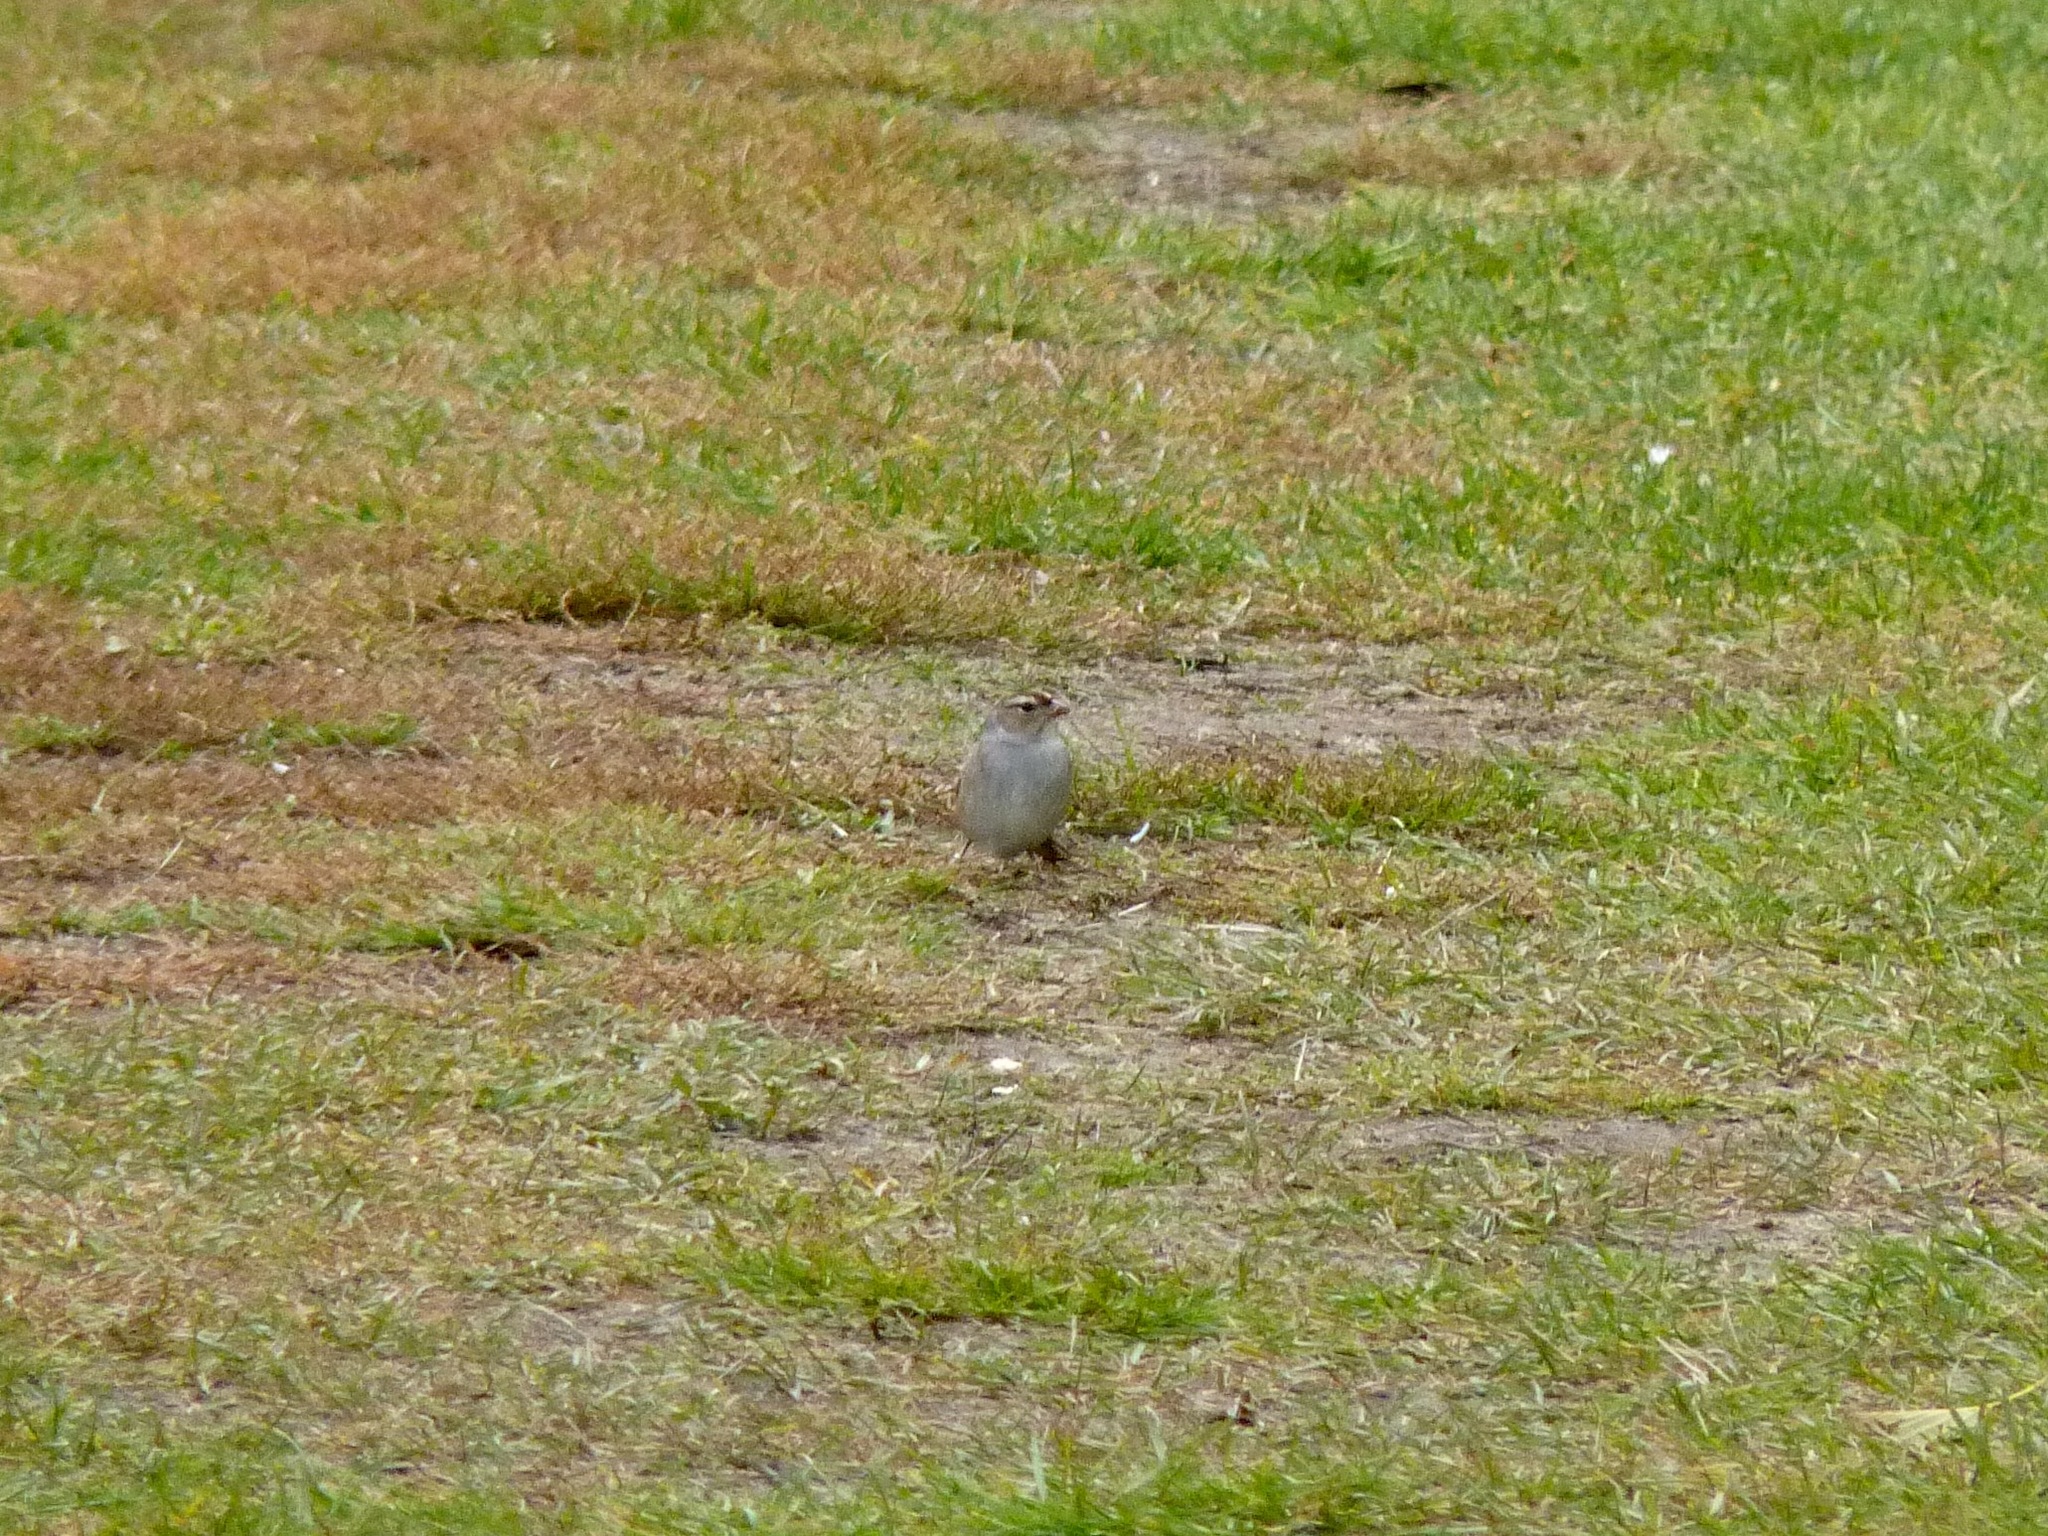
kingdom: Animalia
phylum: Chordata
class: Aves
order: Passeriformes
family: Passerellidae
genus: Zonotrichia
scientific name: Zonotrichia leucophrys
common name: White-crowned sparrow
